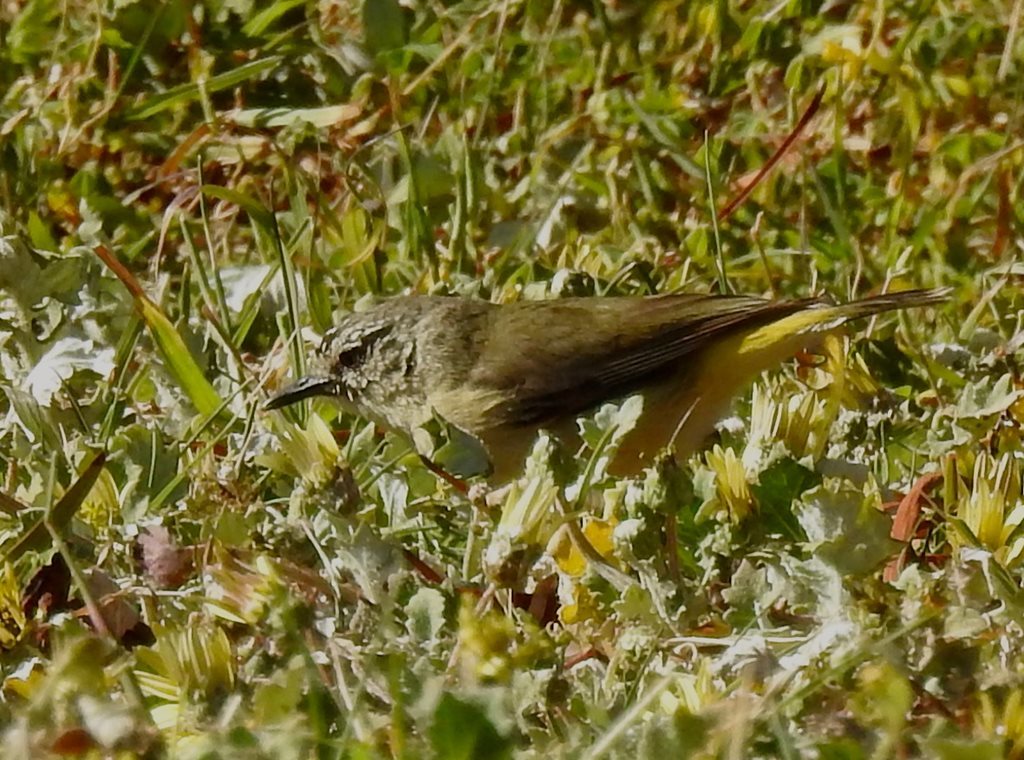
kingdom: Animalia
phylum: Chordata
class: Aves
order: Passeriformes
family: Acanthizidae
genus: Acanthiza
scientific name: Acanthiza chrysorrhoa
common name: Yellow-rumped thornbill
